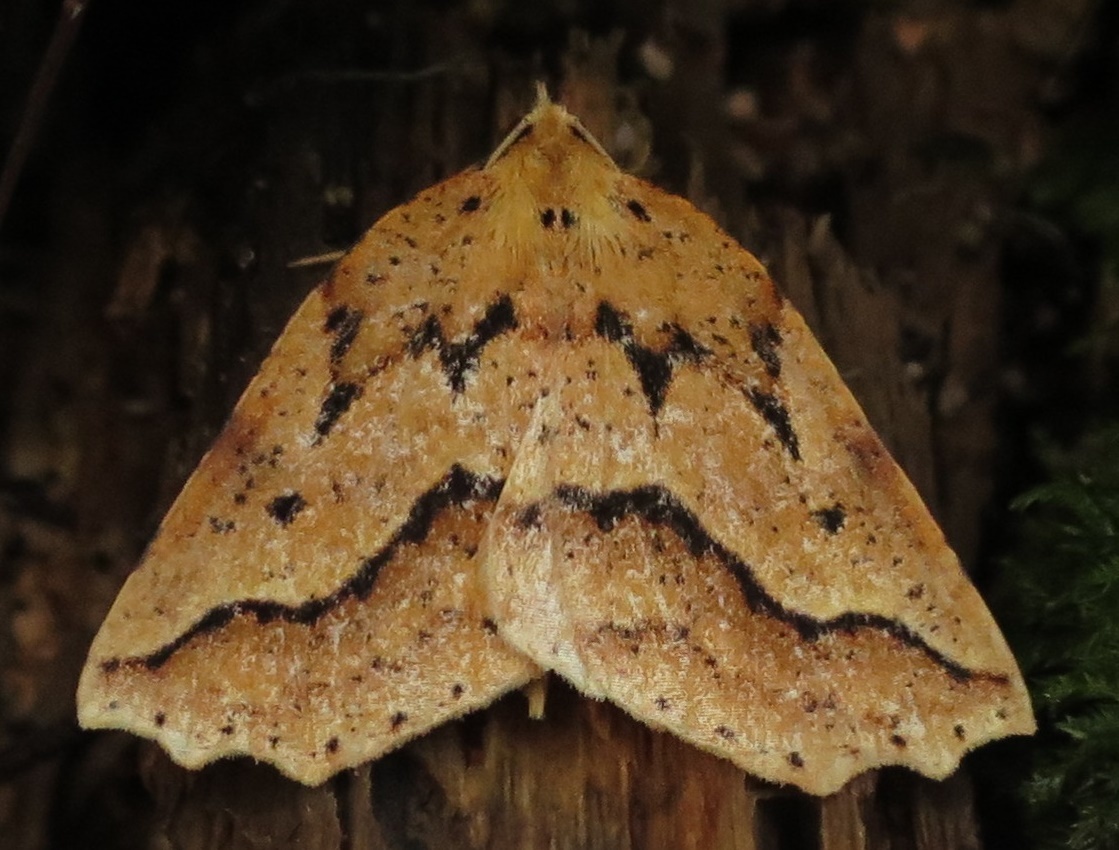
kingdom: Animalia
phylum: Arthropoda
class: Insecta
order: Lepidoptera
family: Geometridae
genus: Ischalis
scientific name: Ischalis variabilis
